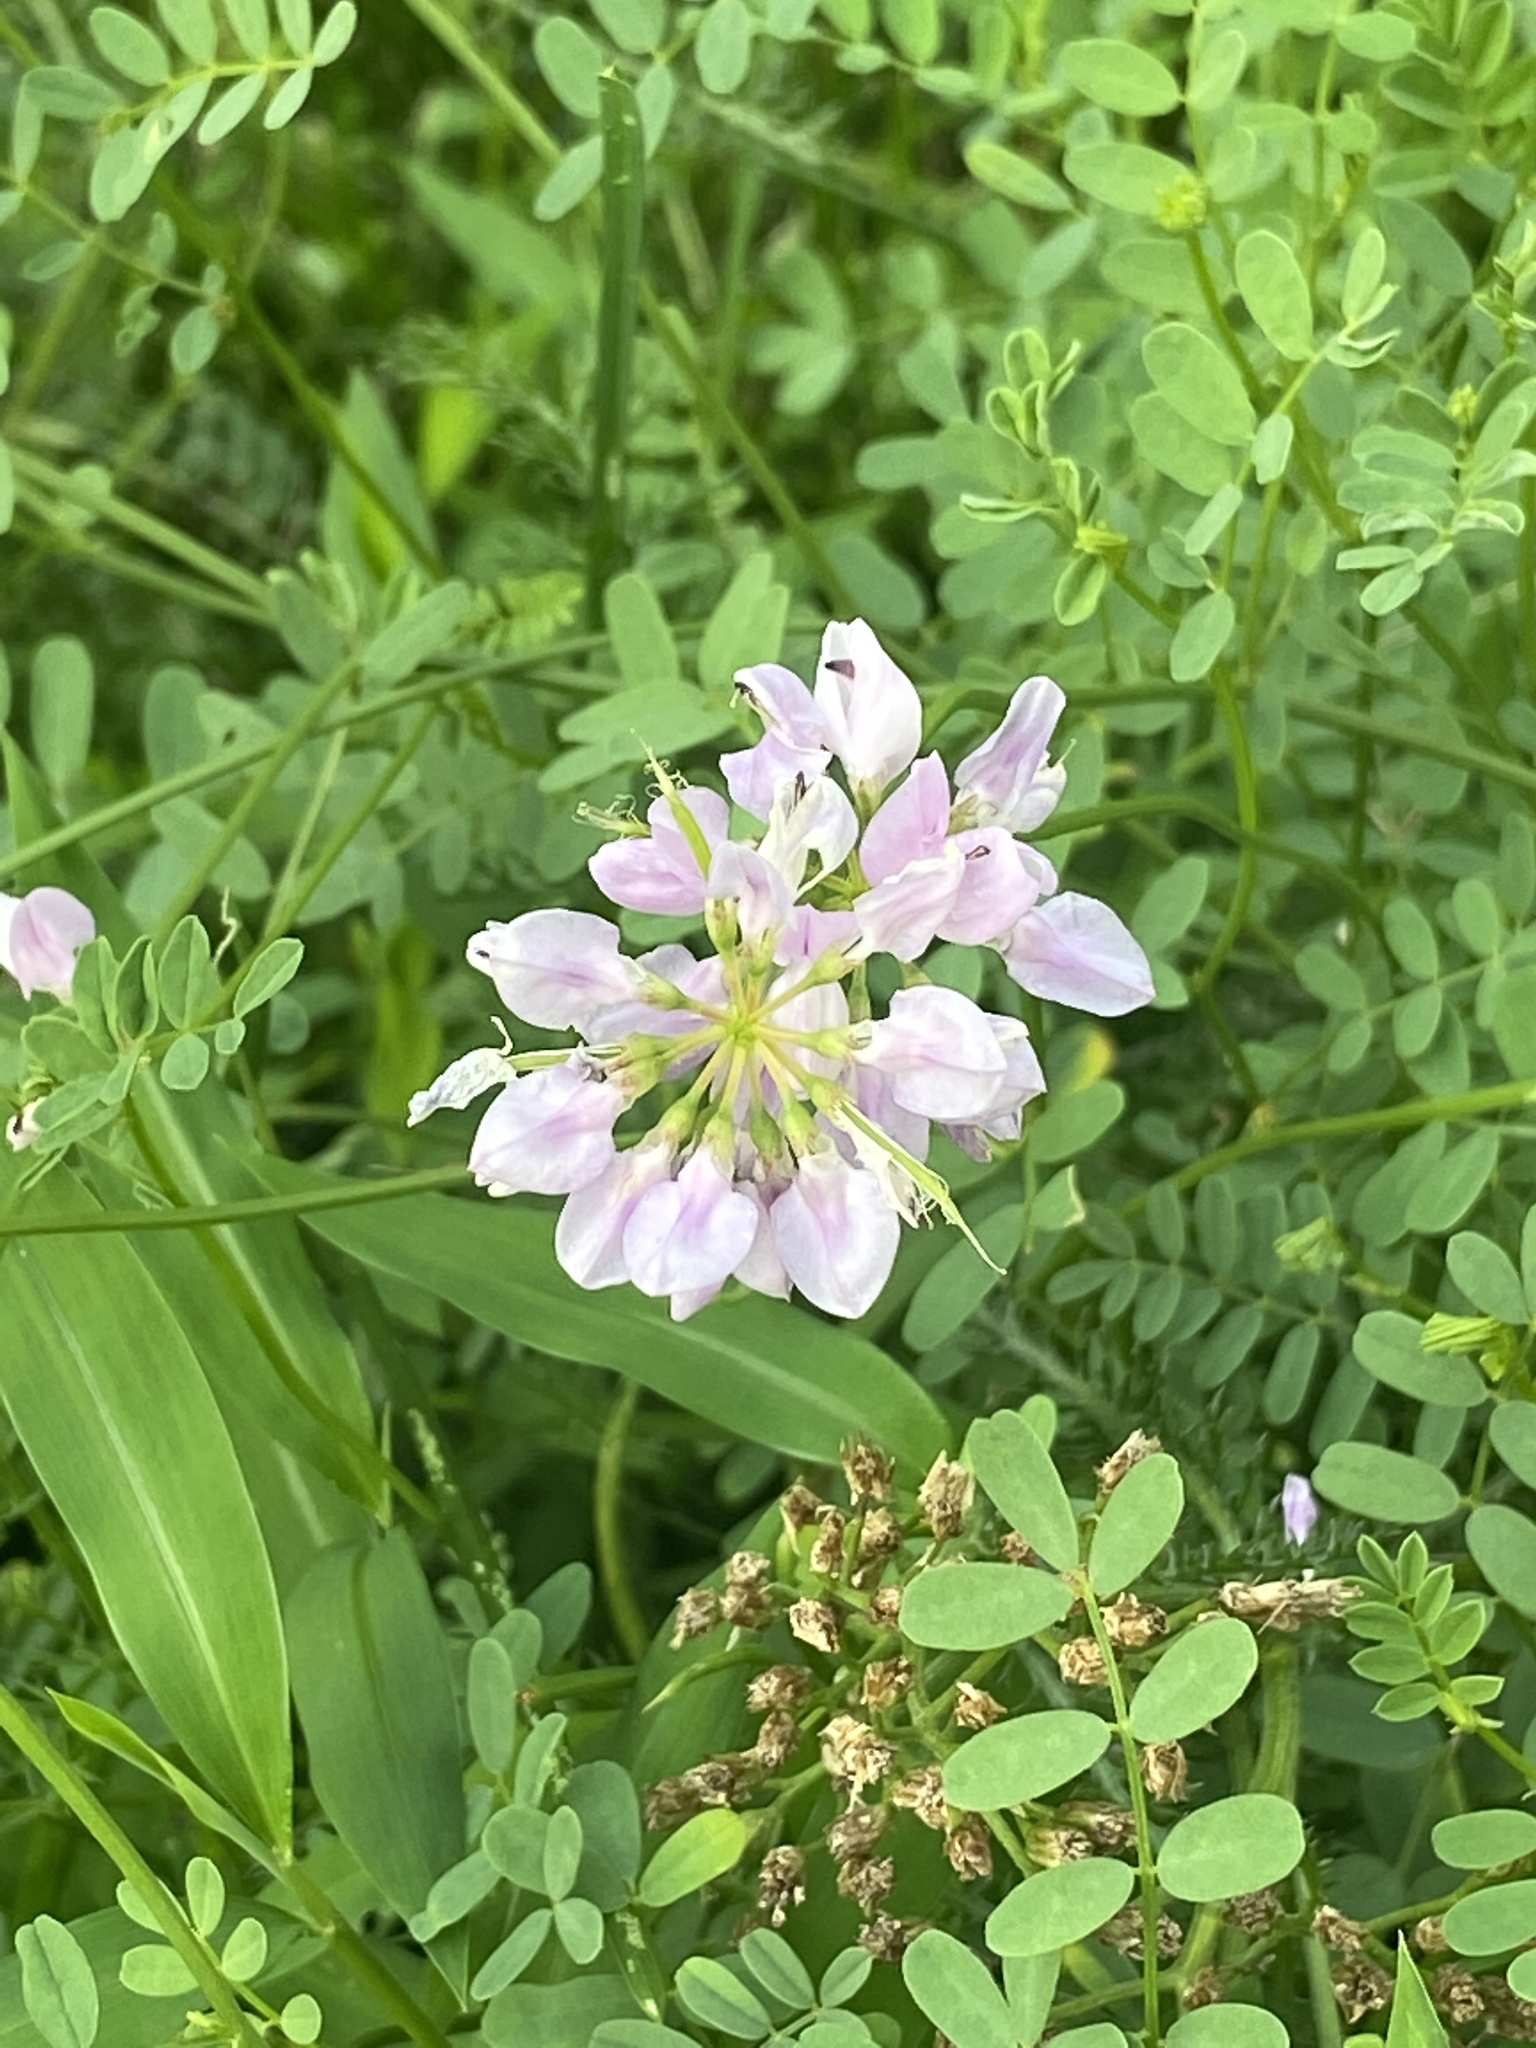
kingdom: Plantae
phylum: Tracheophyta
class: Magnoliopsida
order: Fabales
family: Fabaceae
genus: Coronilla
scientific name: Coronilla varia
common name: Crownvetch
